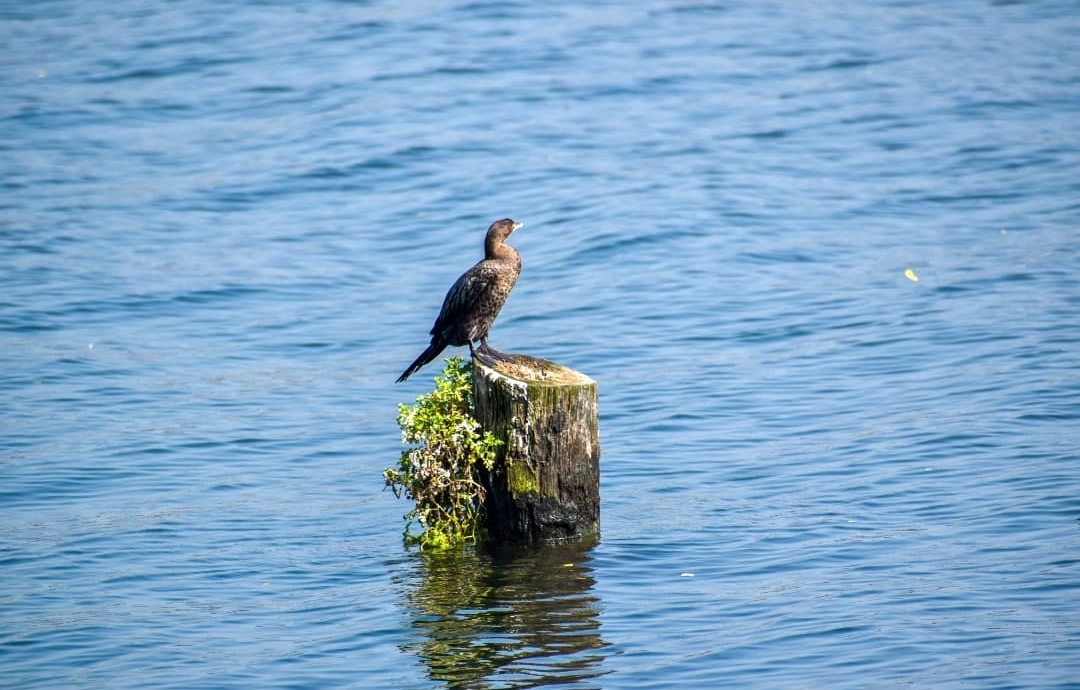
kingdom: Animalia
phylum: Chordata
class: Aves
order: Suliformes
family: Phalacrocoracidae
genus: Microcarbo
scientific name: Microcarbo niger
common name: Little cormorant
